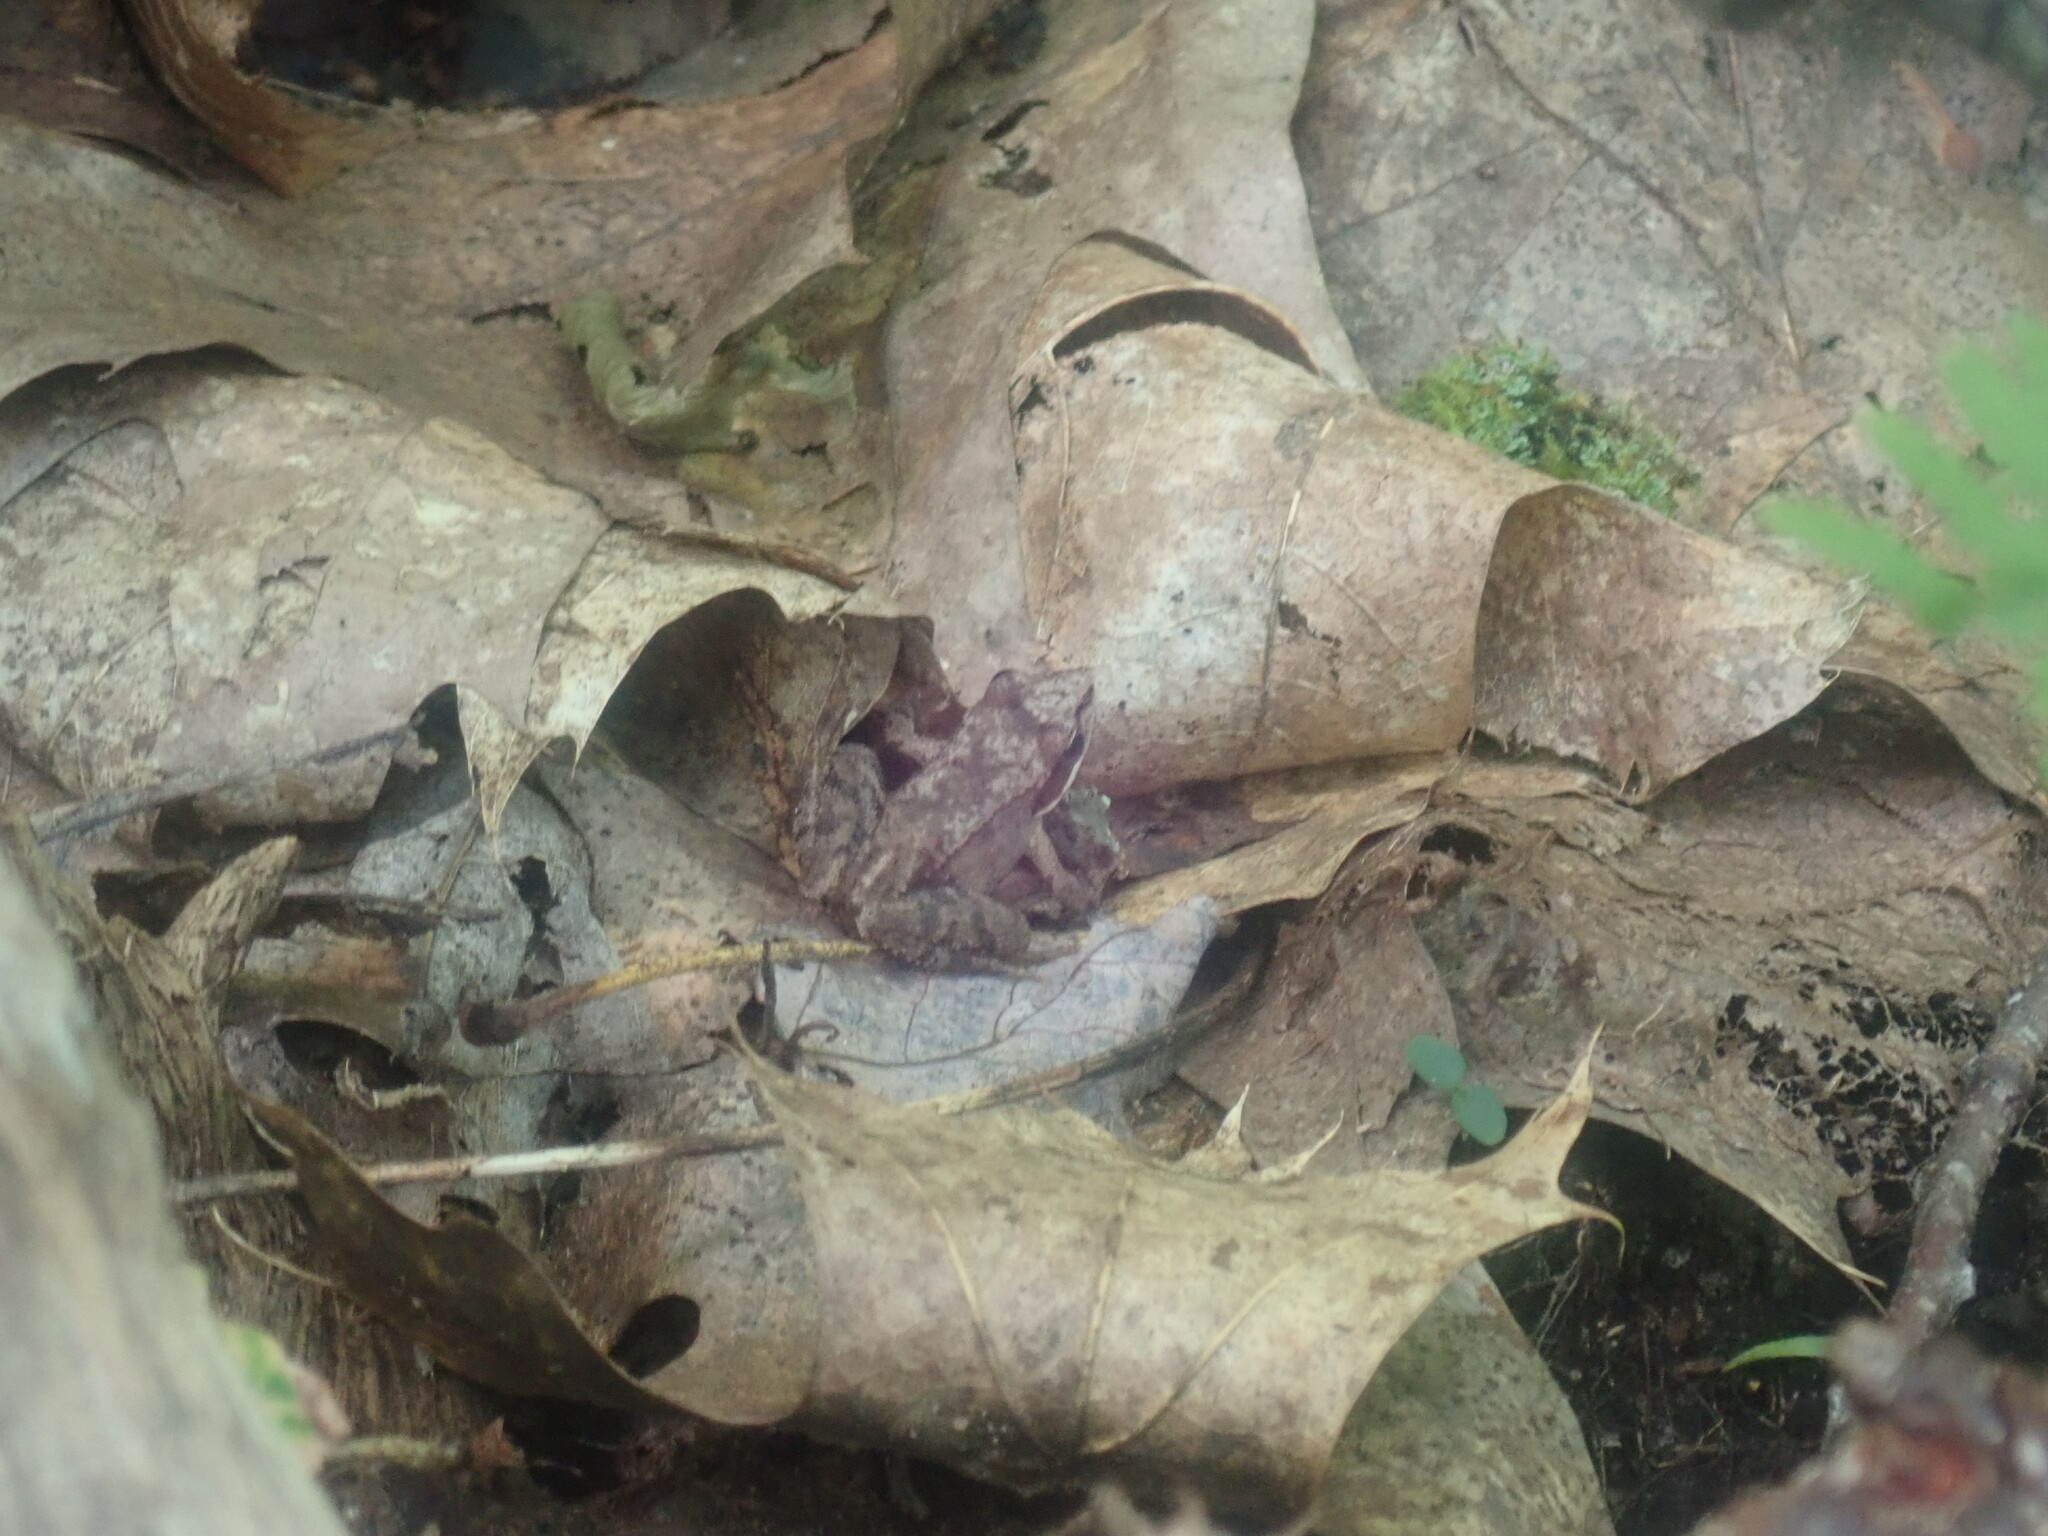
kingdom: Animalia
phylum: Chordata
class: Amphibia
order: Anura
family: Ranidae
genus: Lithobates
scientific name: Lithobates sylvaticus
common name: Wood frog
